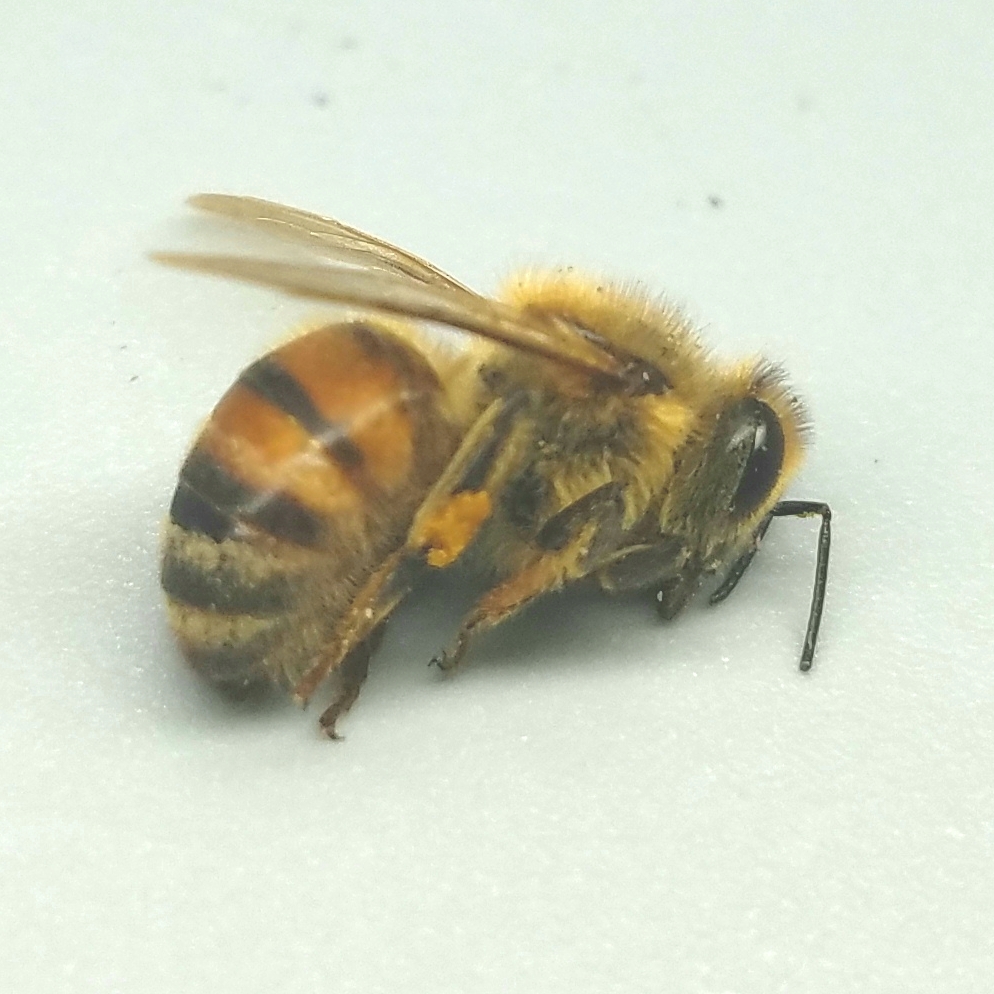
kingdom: Animalia
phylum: Arthropoda
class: Insecta
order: Hymenoptera
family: Apidae
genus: Apis
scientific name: Apis mellifera
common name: Honey bee
